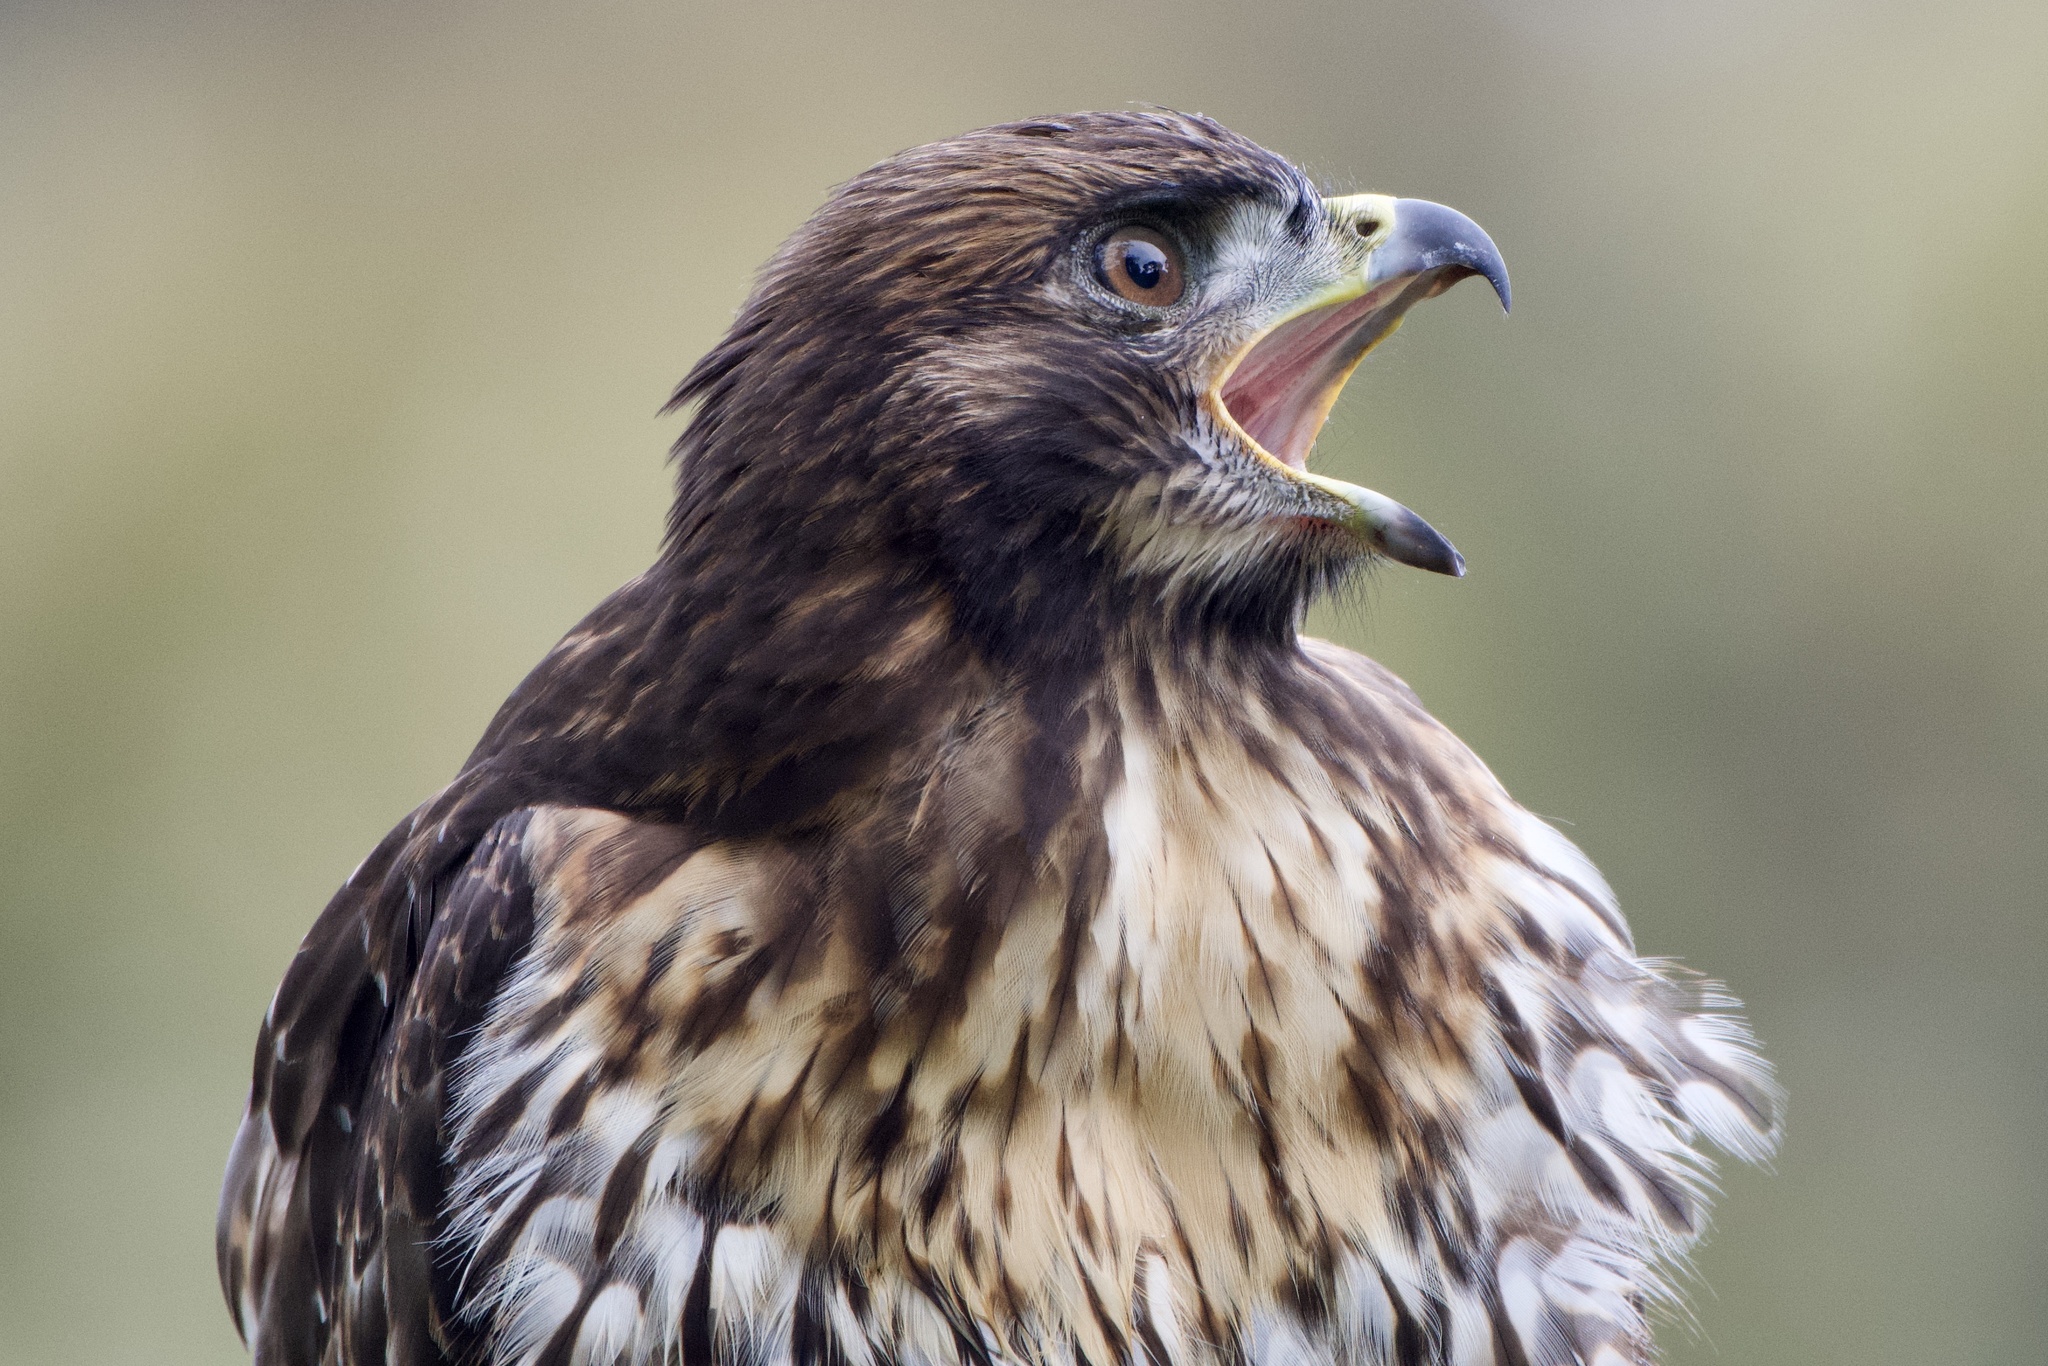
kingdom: Animalia
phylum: Chordata
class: Aves
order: Accipitriformes
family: Accipitridae
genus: Buteo
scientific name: Buteo jamaicensis
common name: Red-tailed hawk
